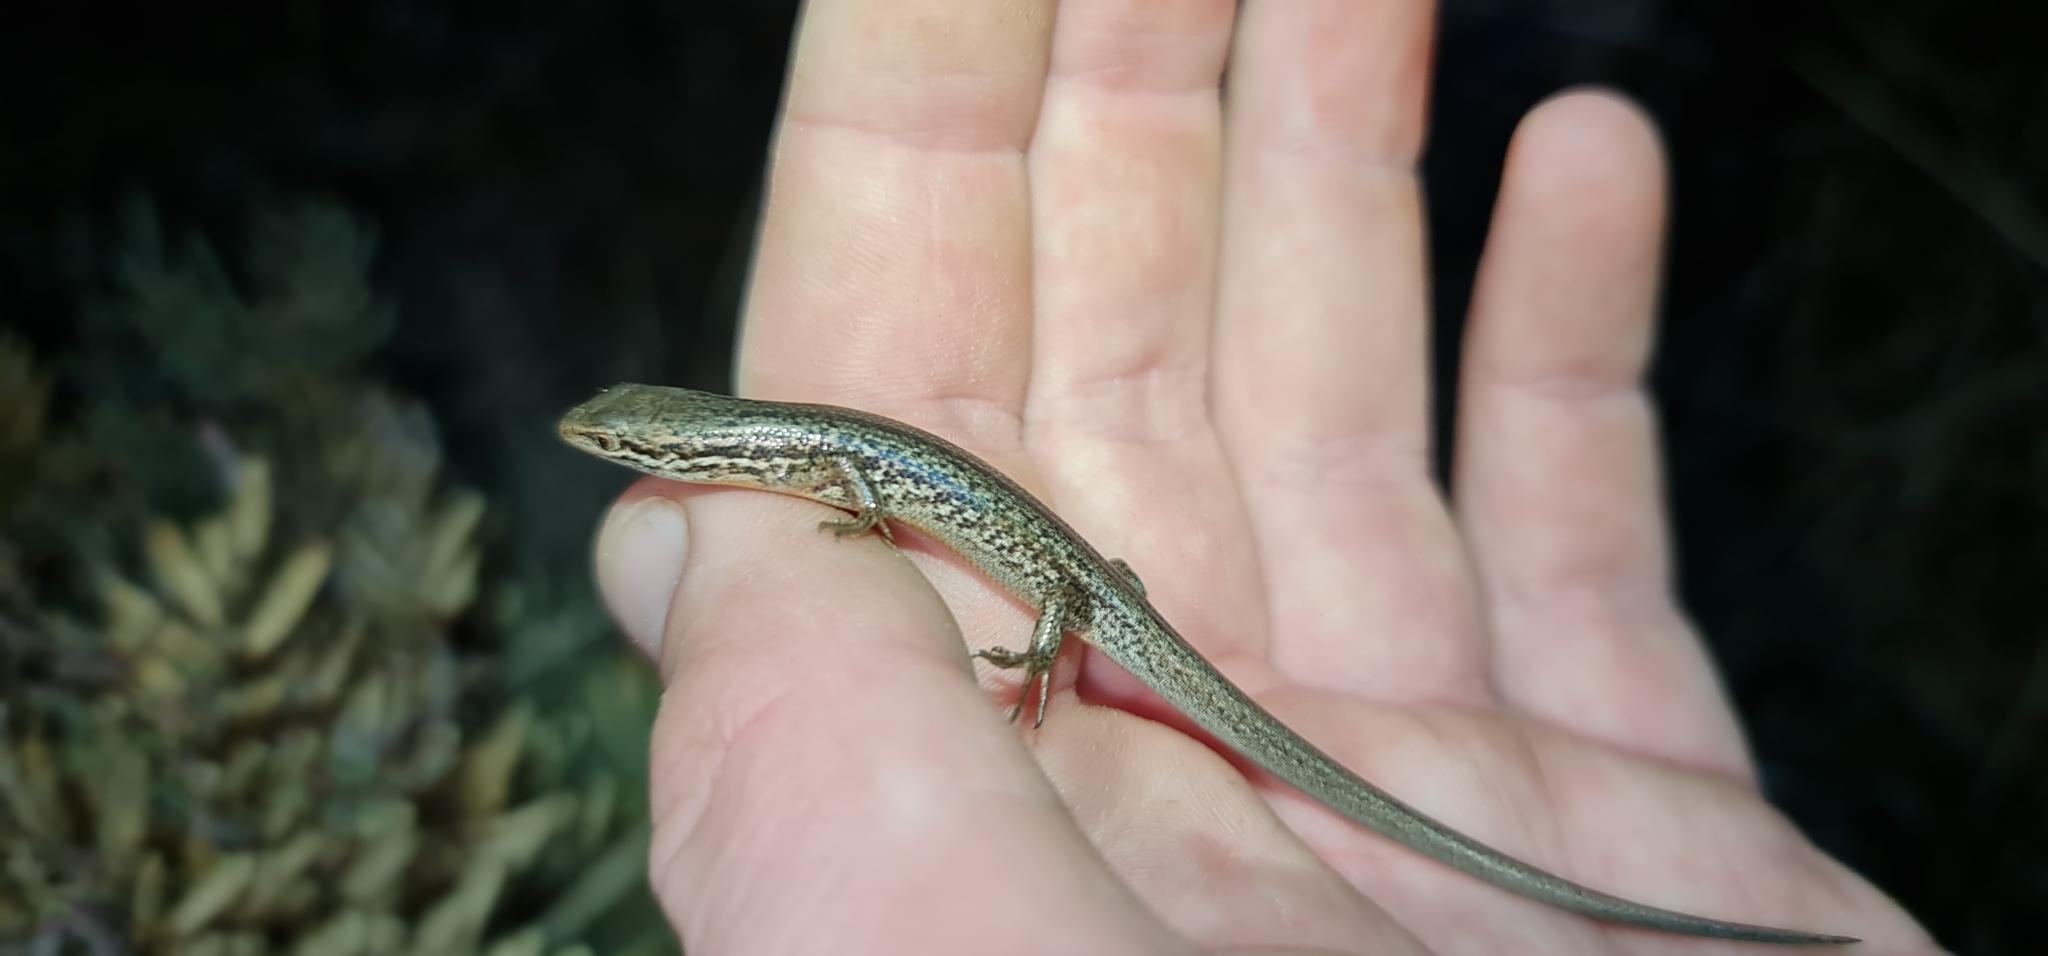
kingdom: Animalia
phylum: Chordata
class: Squamata
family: Scincidae
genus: Morethia
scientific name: Morethia adelaidensis
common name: Saltbush morethia skink
